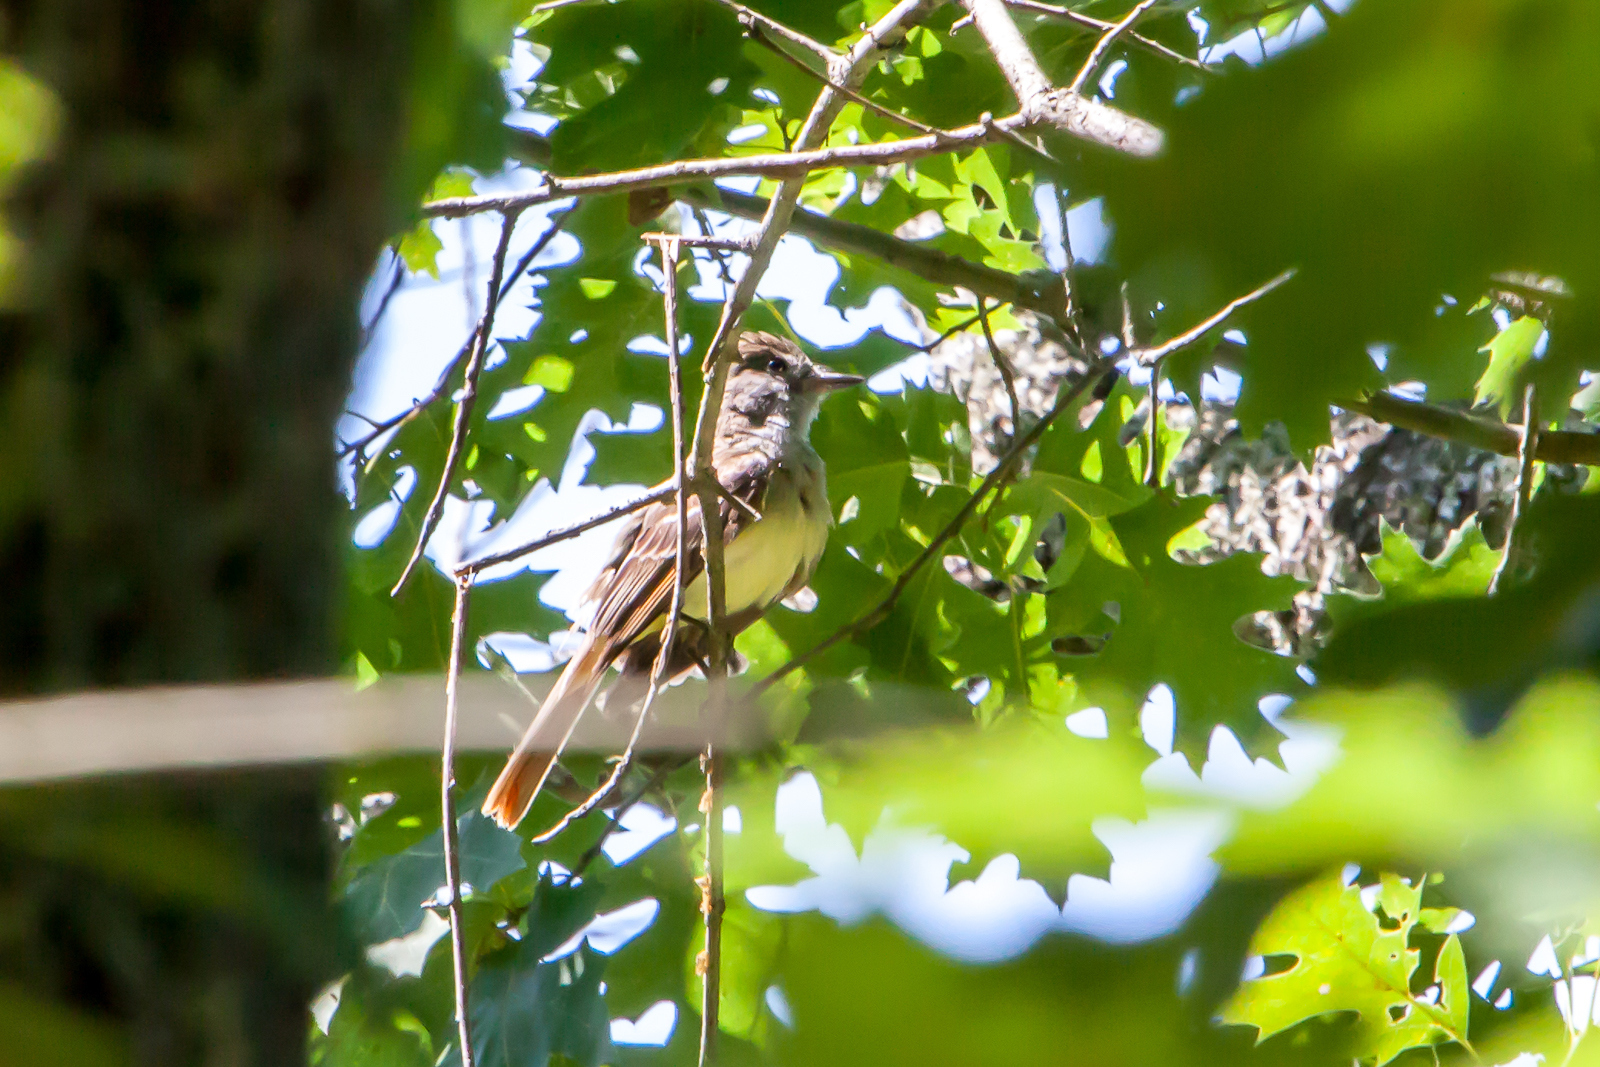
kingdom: Animalia
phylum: Chordata
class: Aves
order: Passeriformes
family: Tyrannidae
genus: Myiarchus
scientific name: Myiarchus crinitus
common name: Great crested flycatcher
